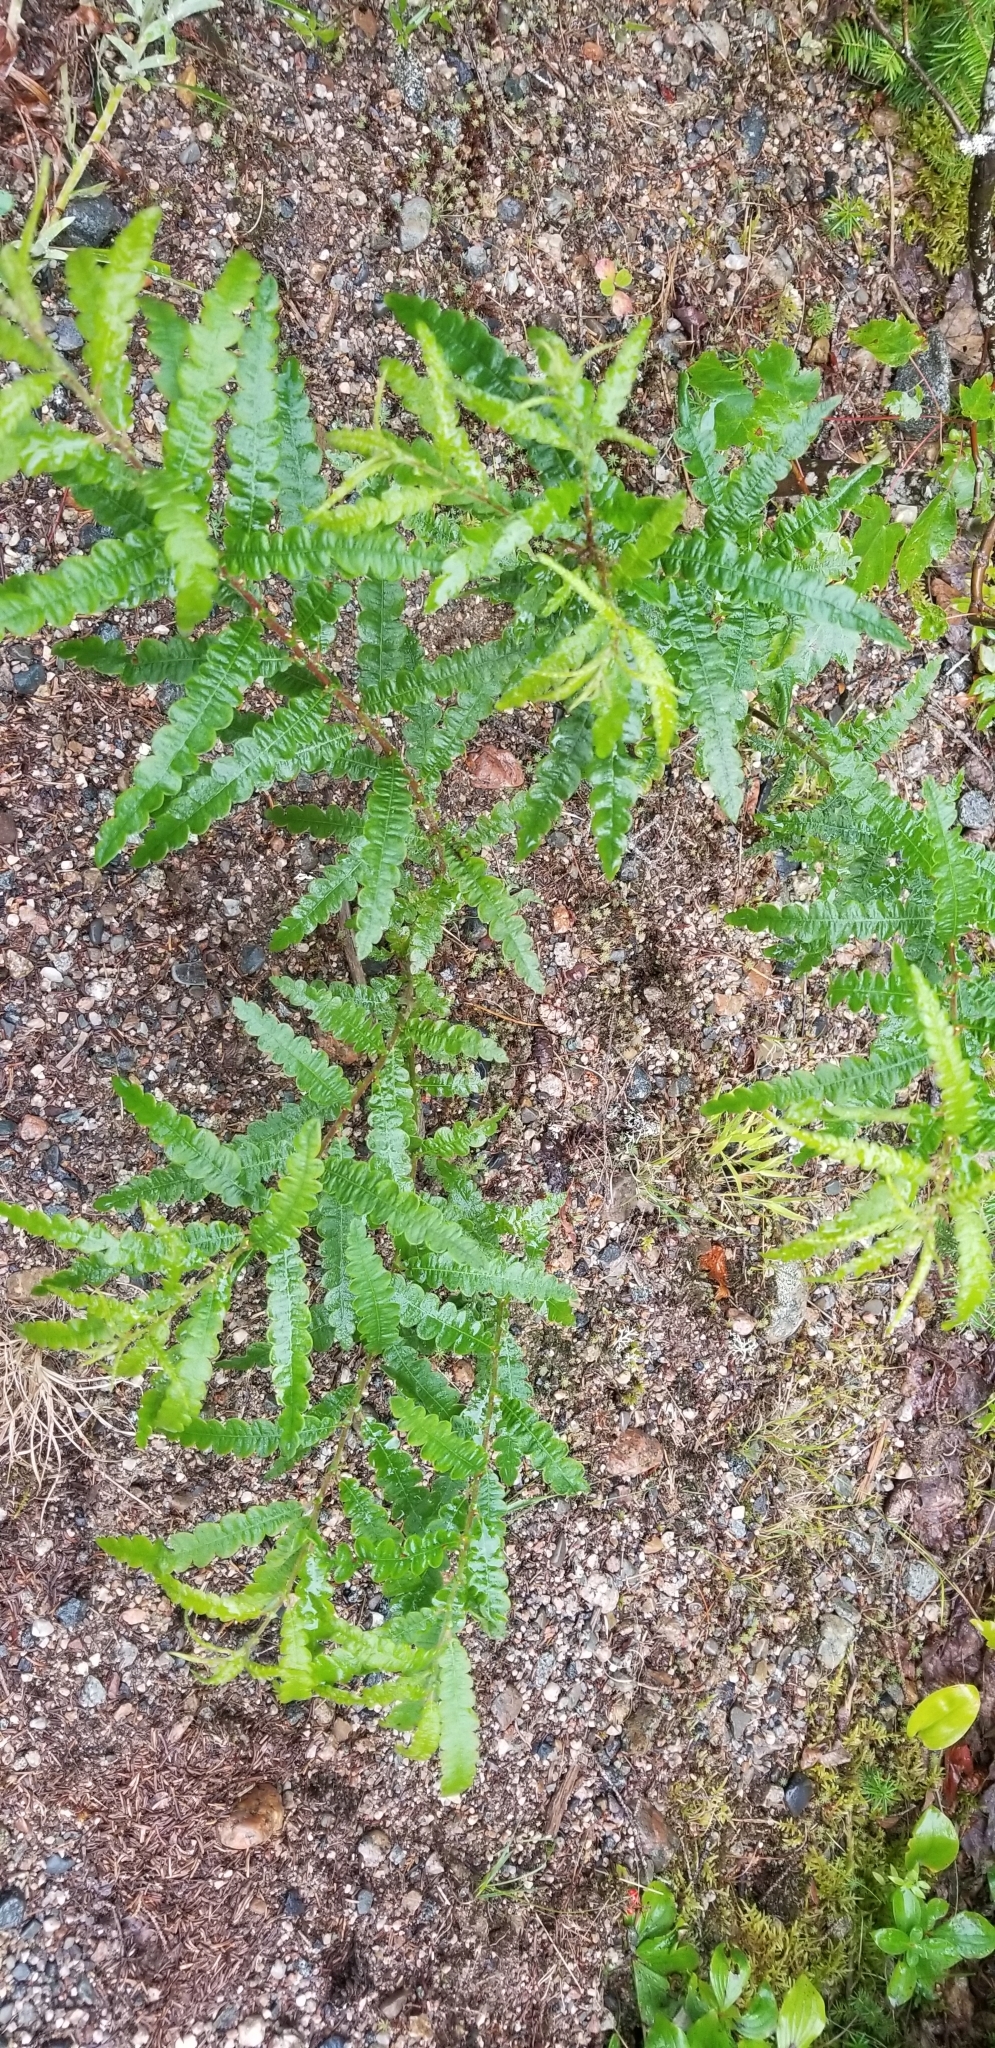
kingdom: Plantae
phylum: Tracheophyta
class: Magnoliopsida
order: Fagales
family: Myricaceae
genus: Comptonia
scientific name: Comptonia peregrina
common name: Sweet-fern
